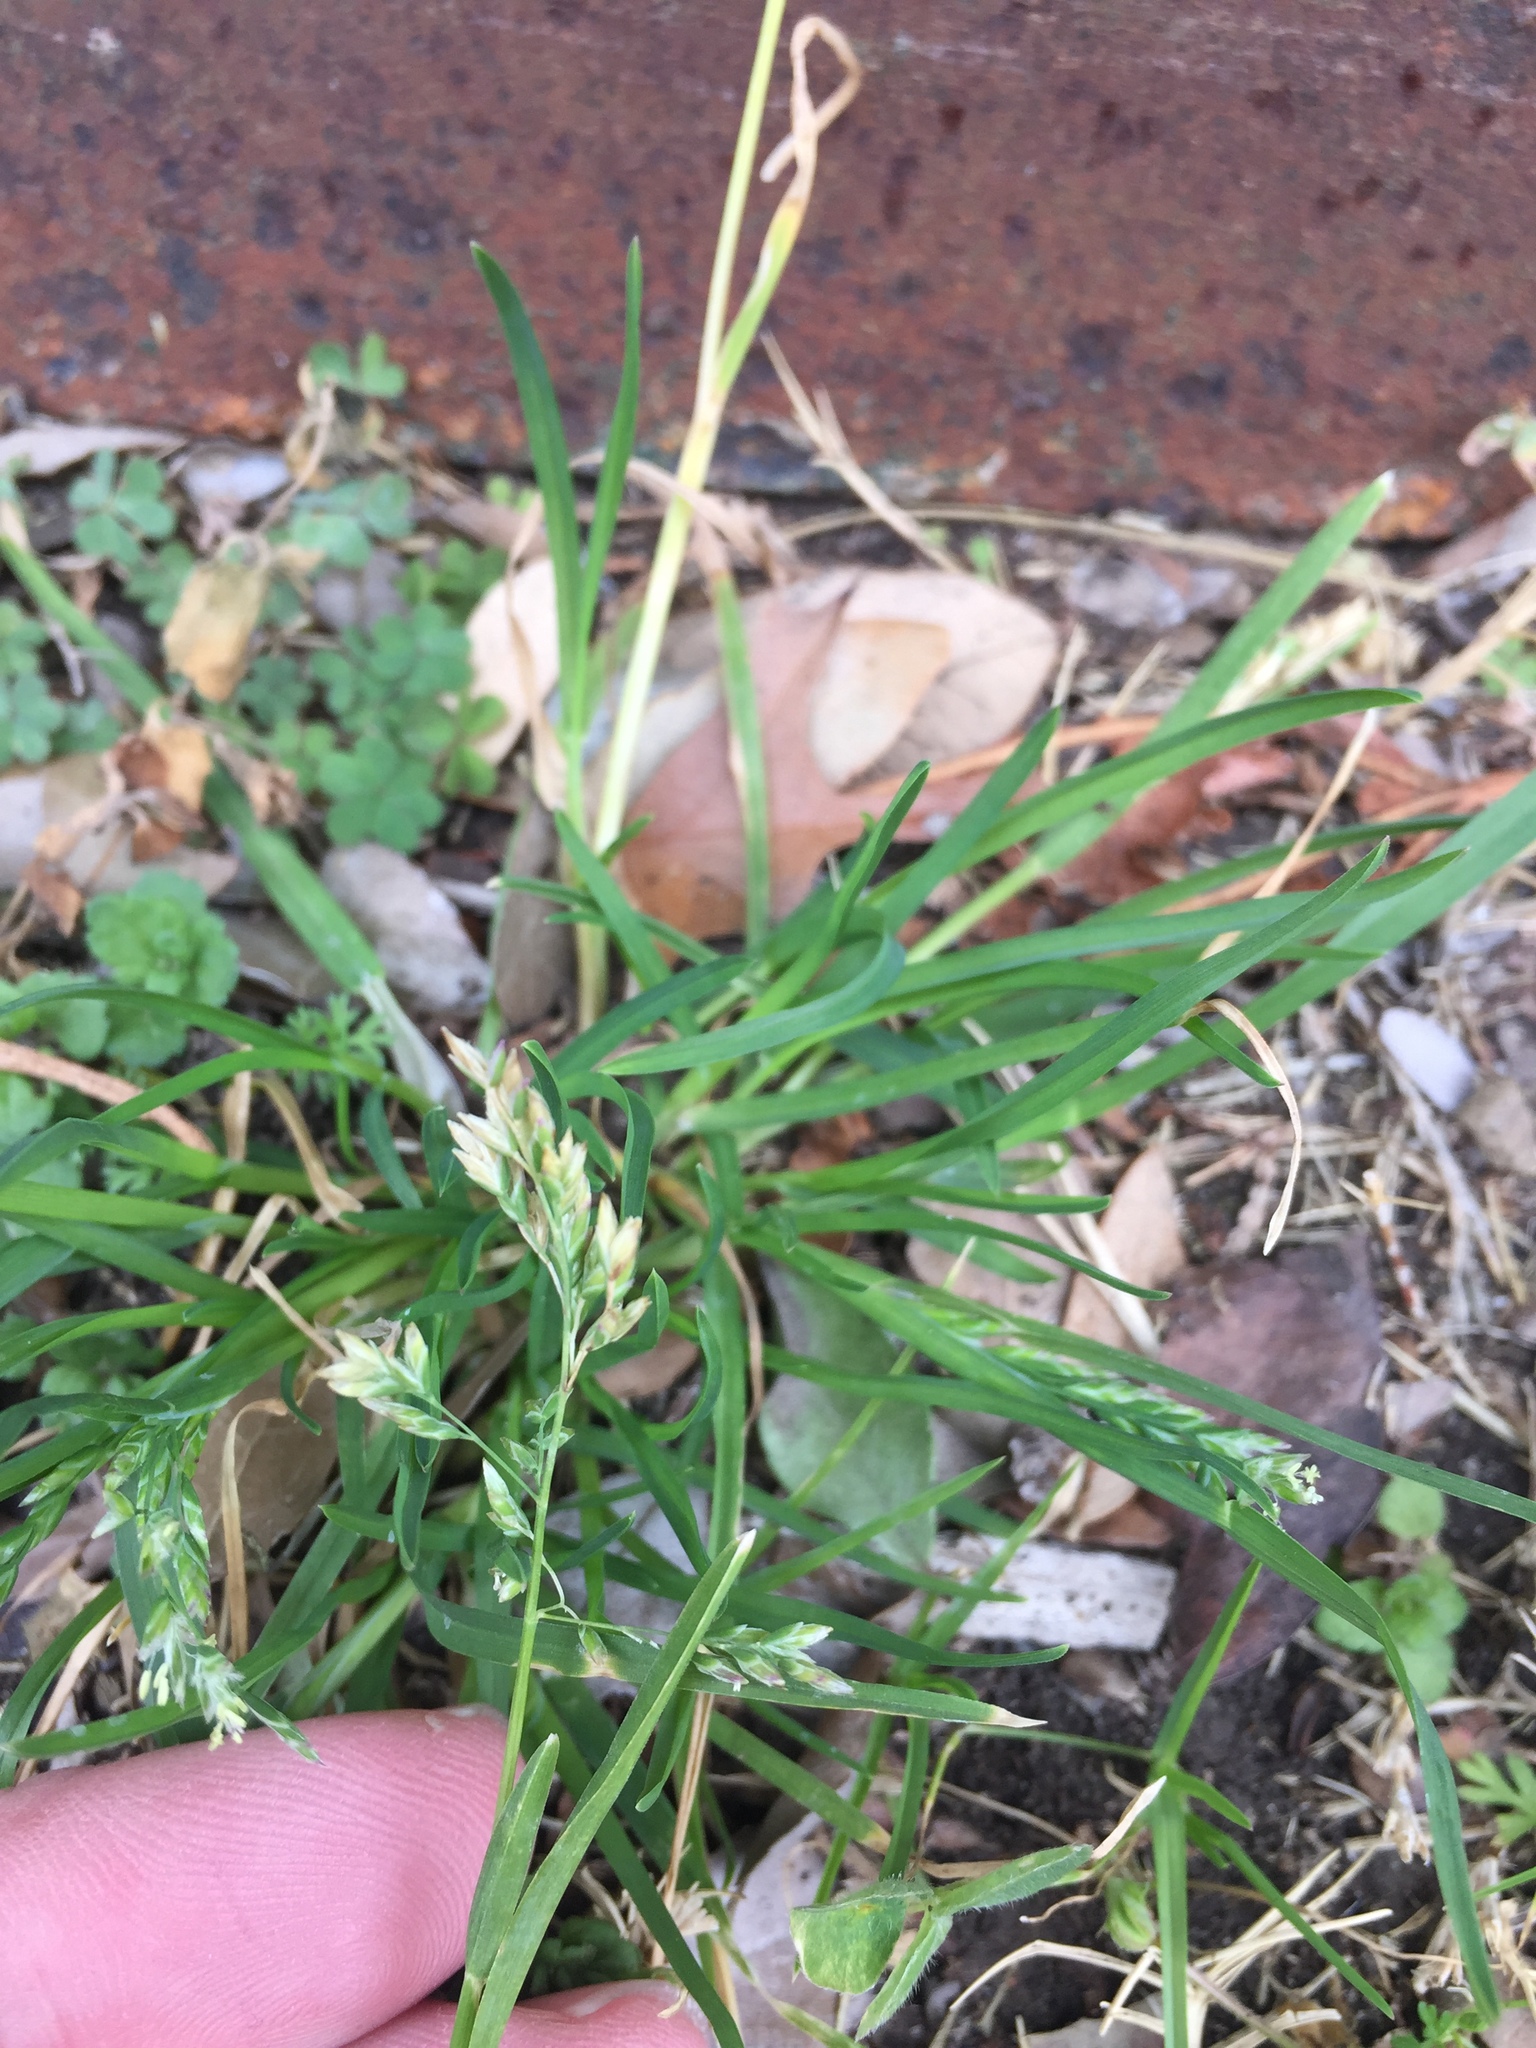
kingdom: Plantae
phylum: Tracheophyta
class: Liliopsida
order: Poales
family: Poaceae
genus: Poa
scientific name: Poa annua
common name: Annual bluegrass
